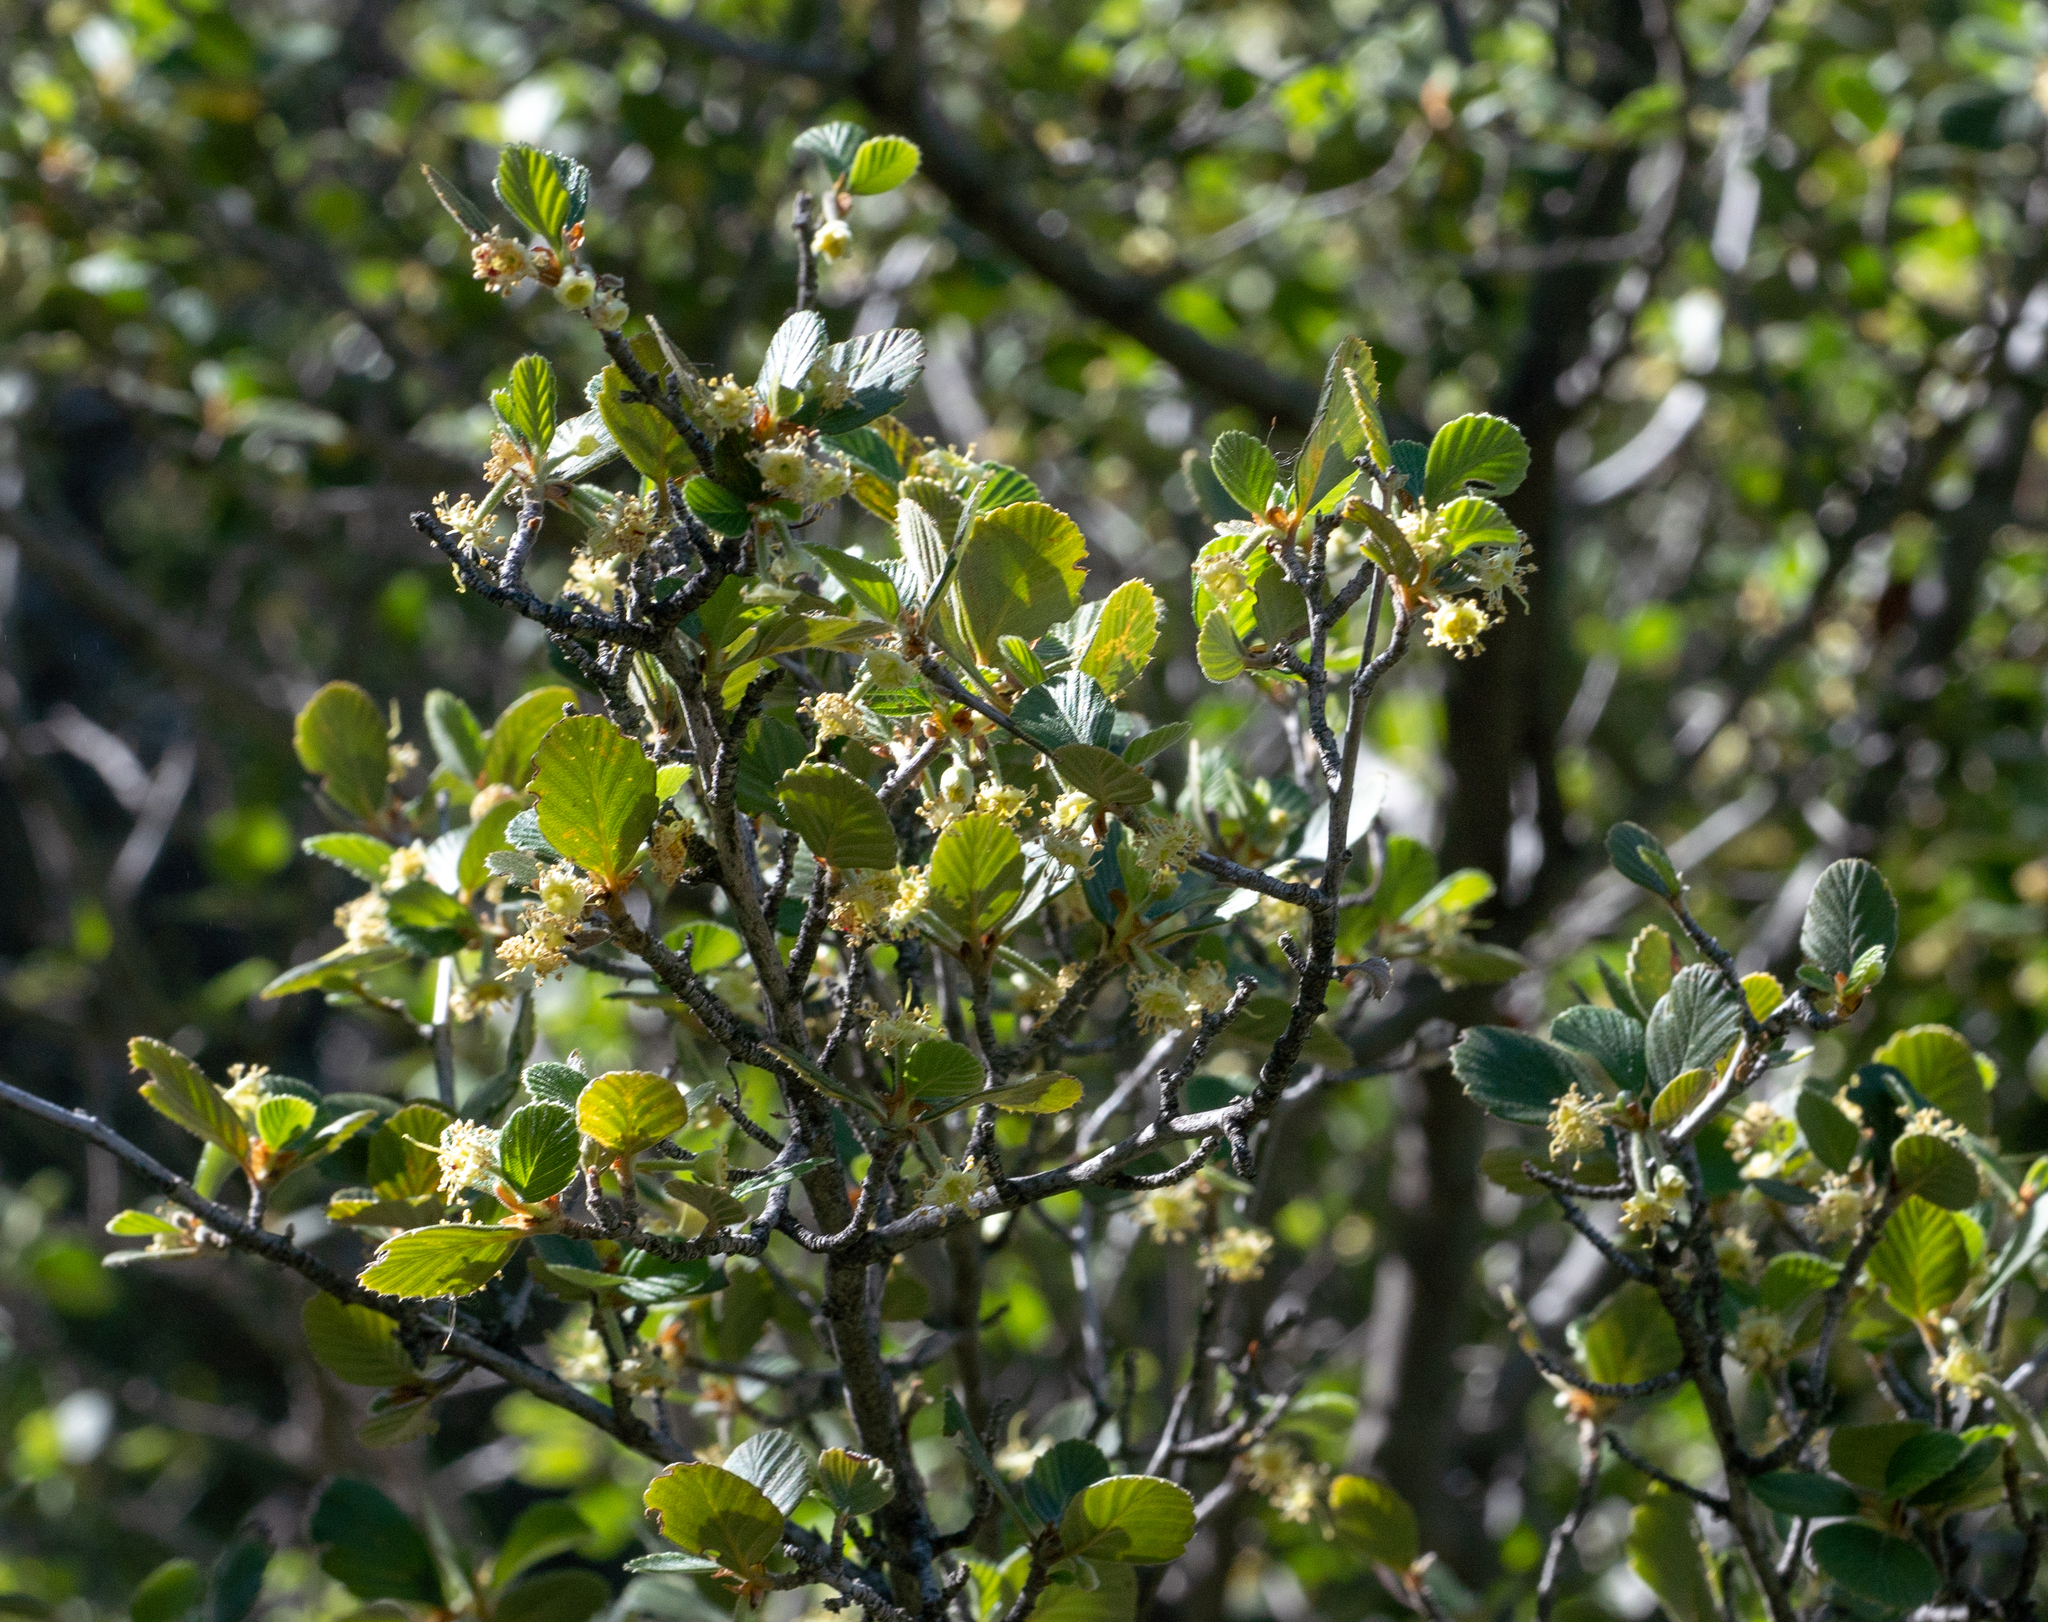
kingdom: Plantae
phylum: Tracheophyta
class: Magnoliopsida
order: Rosales
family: Rosaceae
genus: Cercocarpus
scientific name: Cercocarpus betuloides
